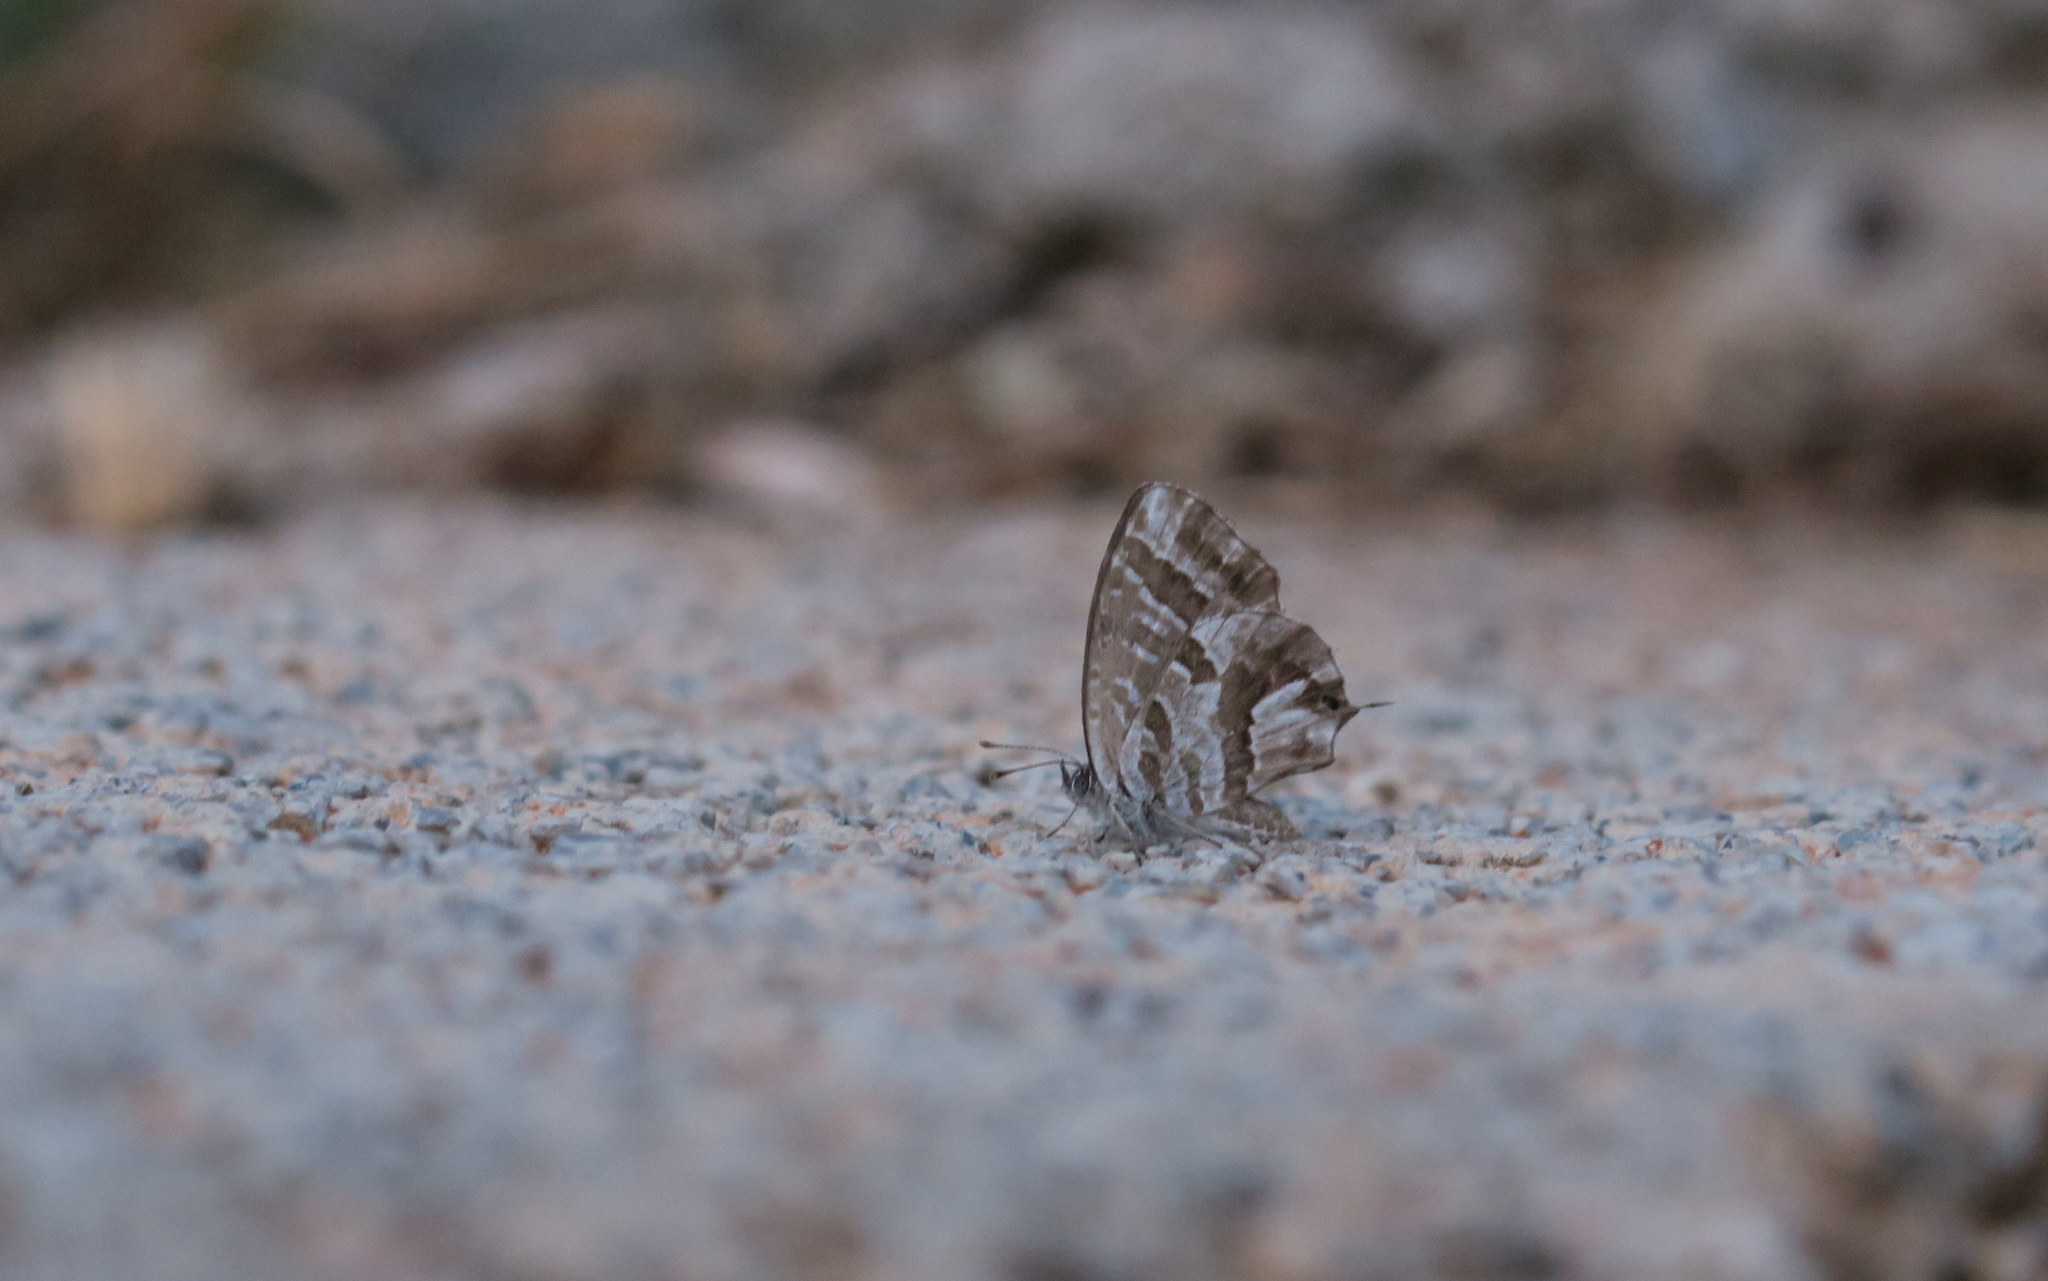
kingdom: Animalia
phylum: Arthropoda
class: Insecta
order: Lepidoptera
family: Lycaenidae
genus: Cacyreus
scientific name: Cacyreus marshalli
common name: Geranium bronze
